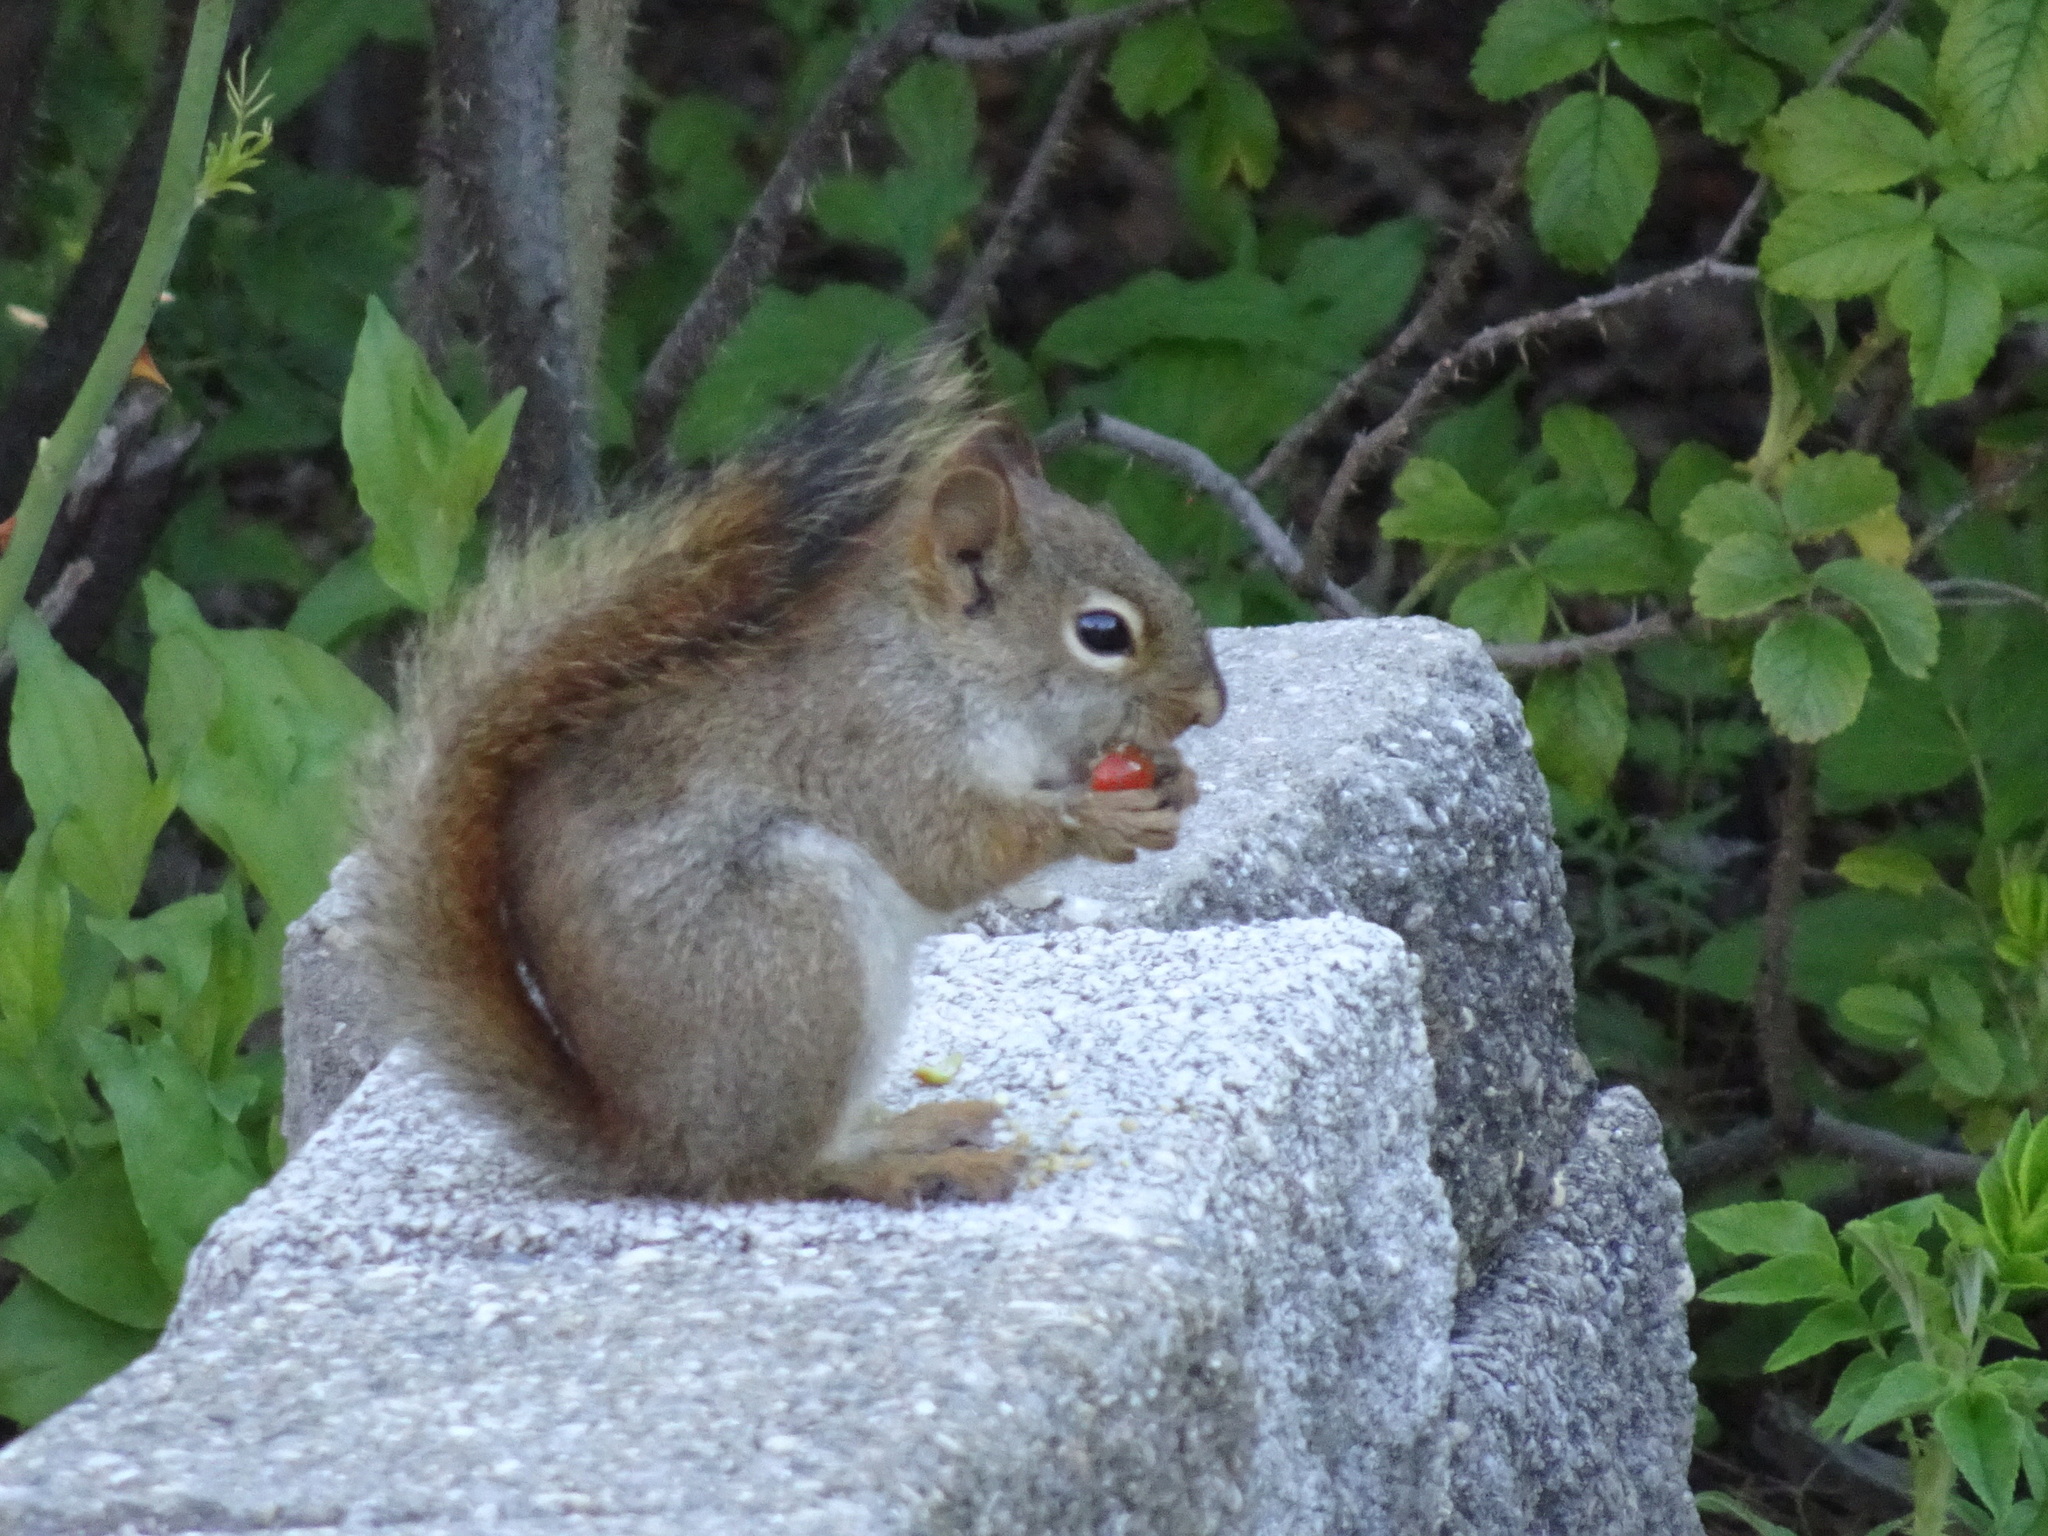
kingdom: Animalia
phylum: Chordata
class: Mammalia
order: Rodentia
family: Sciuridae
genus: Tamiasciurus
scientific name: Tamiasciurus hudsonicus
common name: Red squirrel
